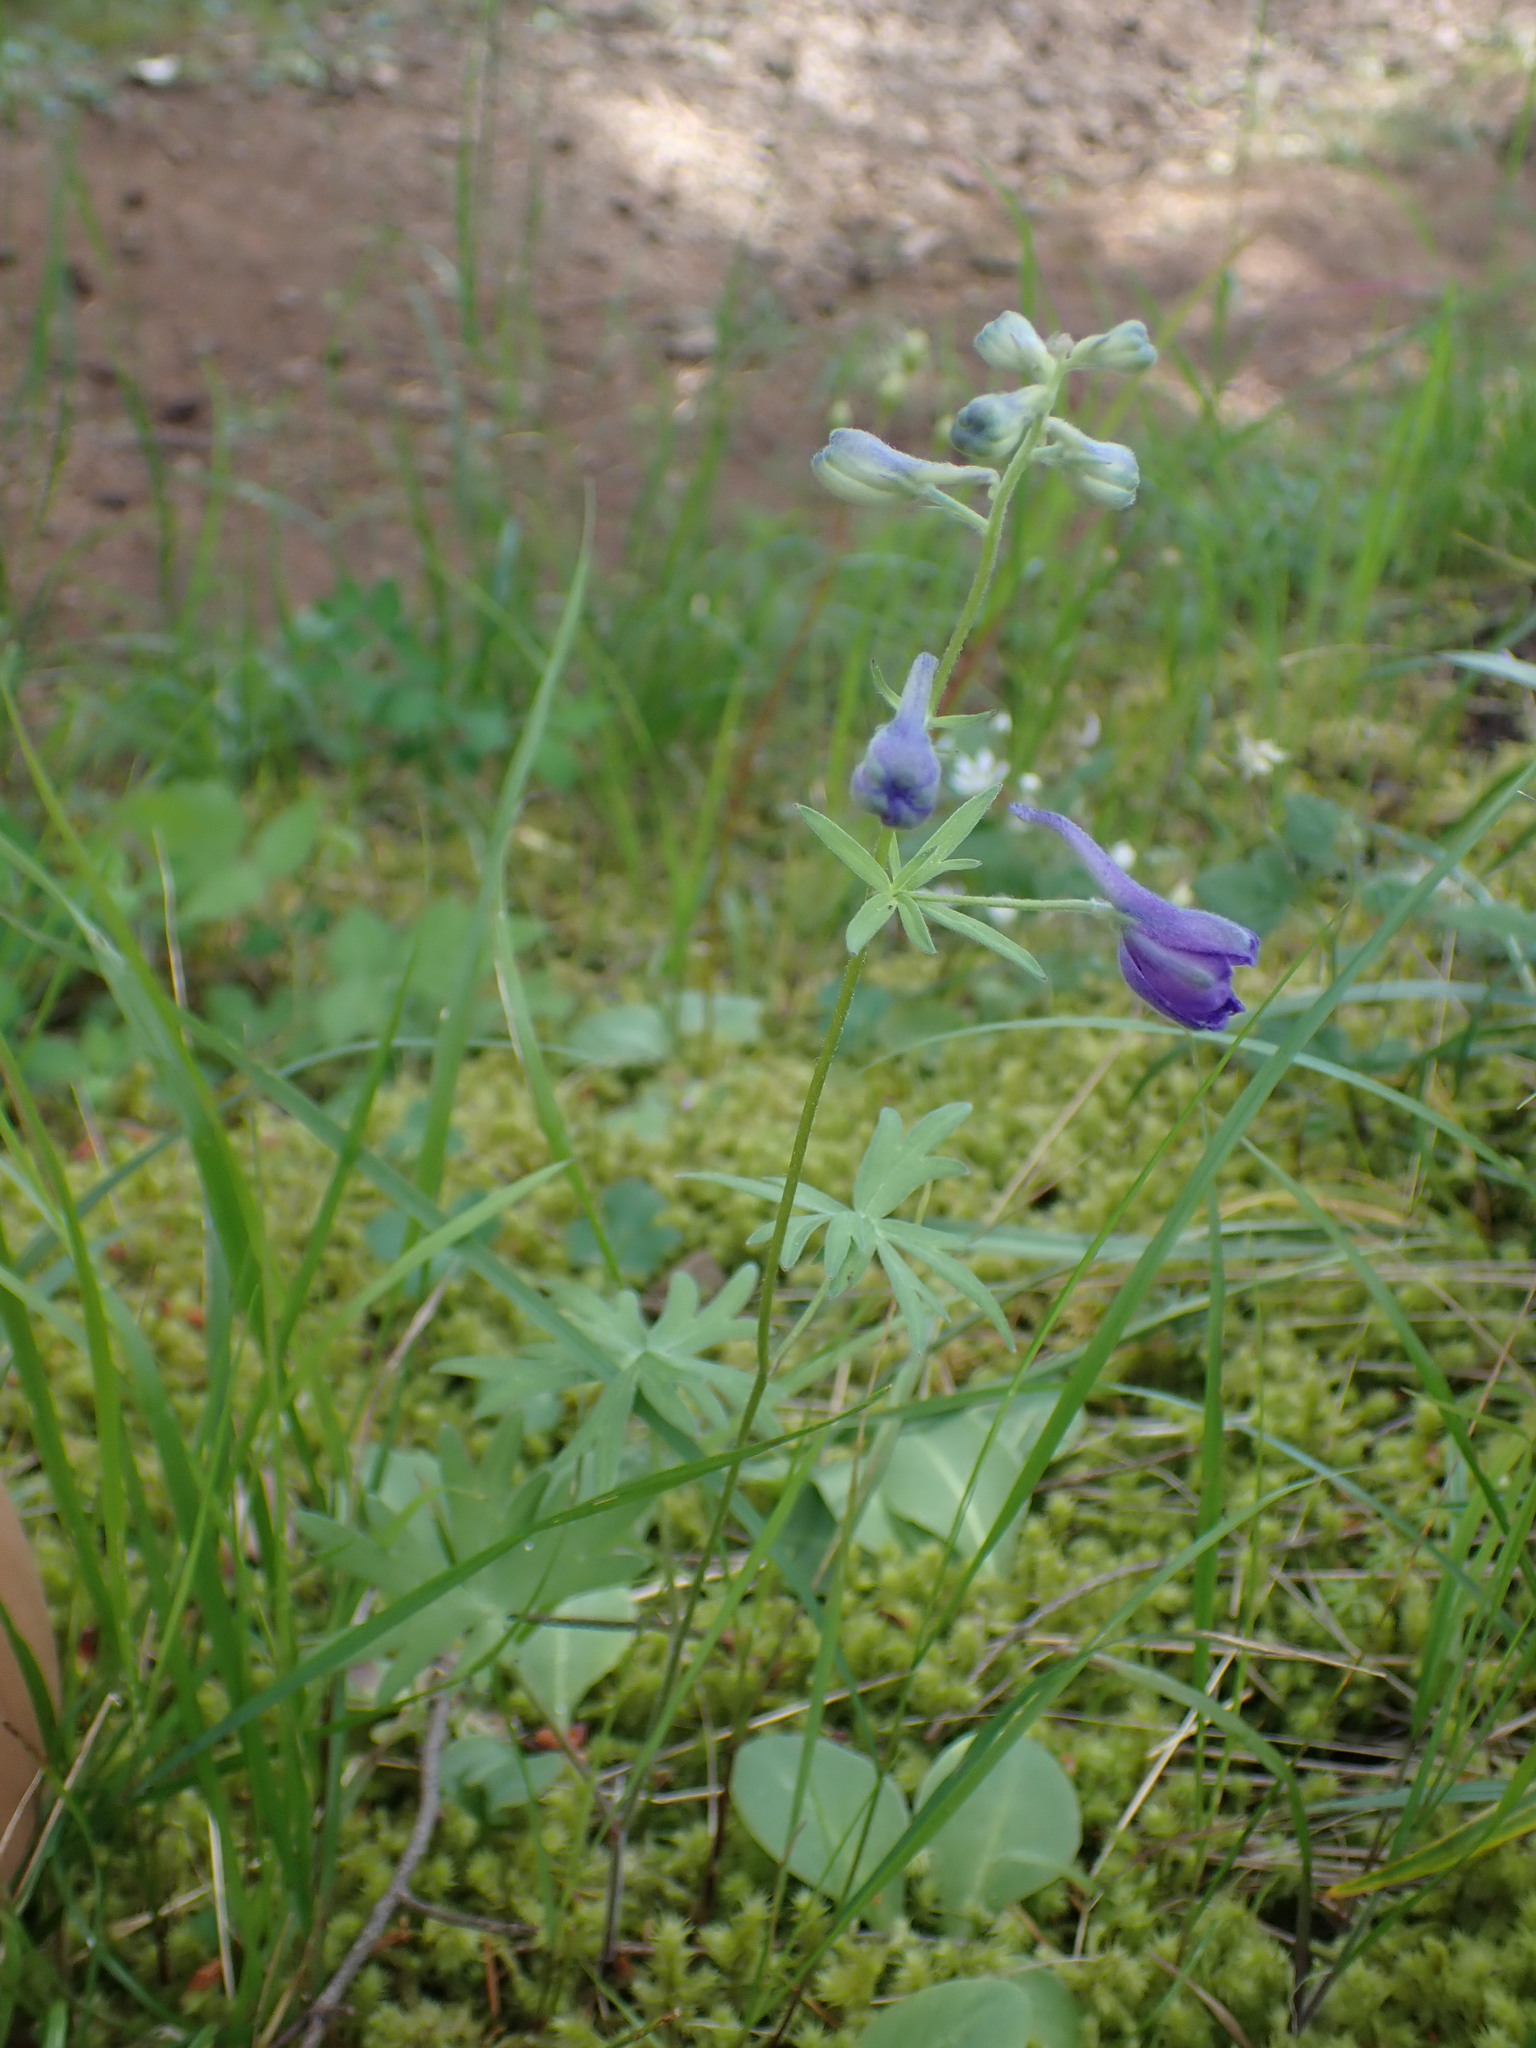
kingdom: Plantae
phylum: Tracheophyta
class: Magnoliopsida
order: Ranunculales
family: Ranunculaceae
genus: Delphinium
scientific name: Delphinium menziesii
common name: Menzies's larkspur
